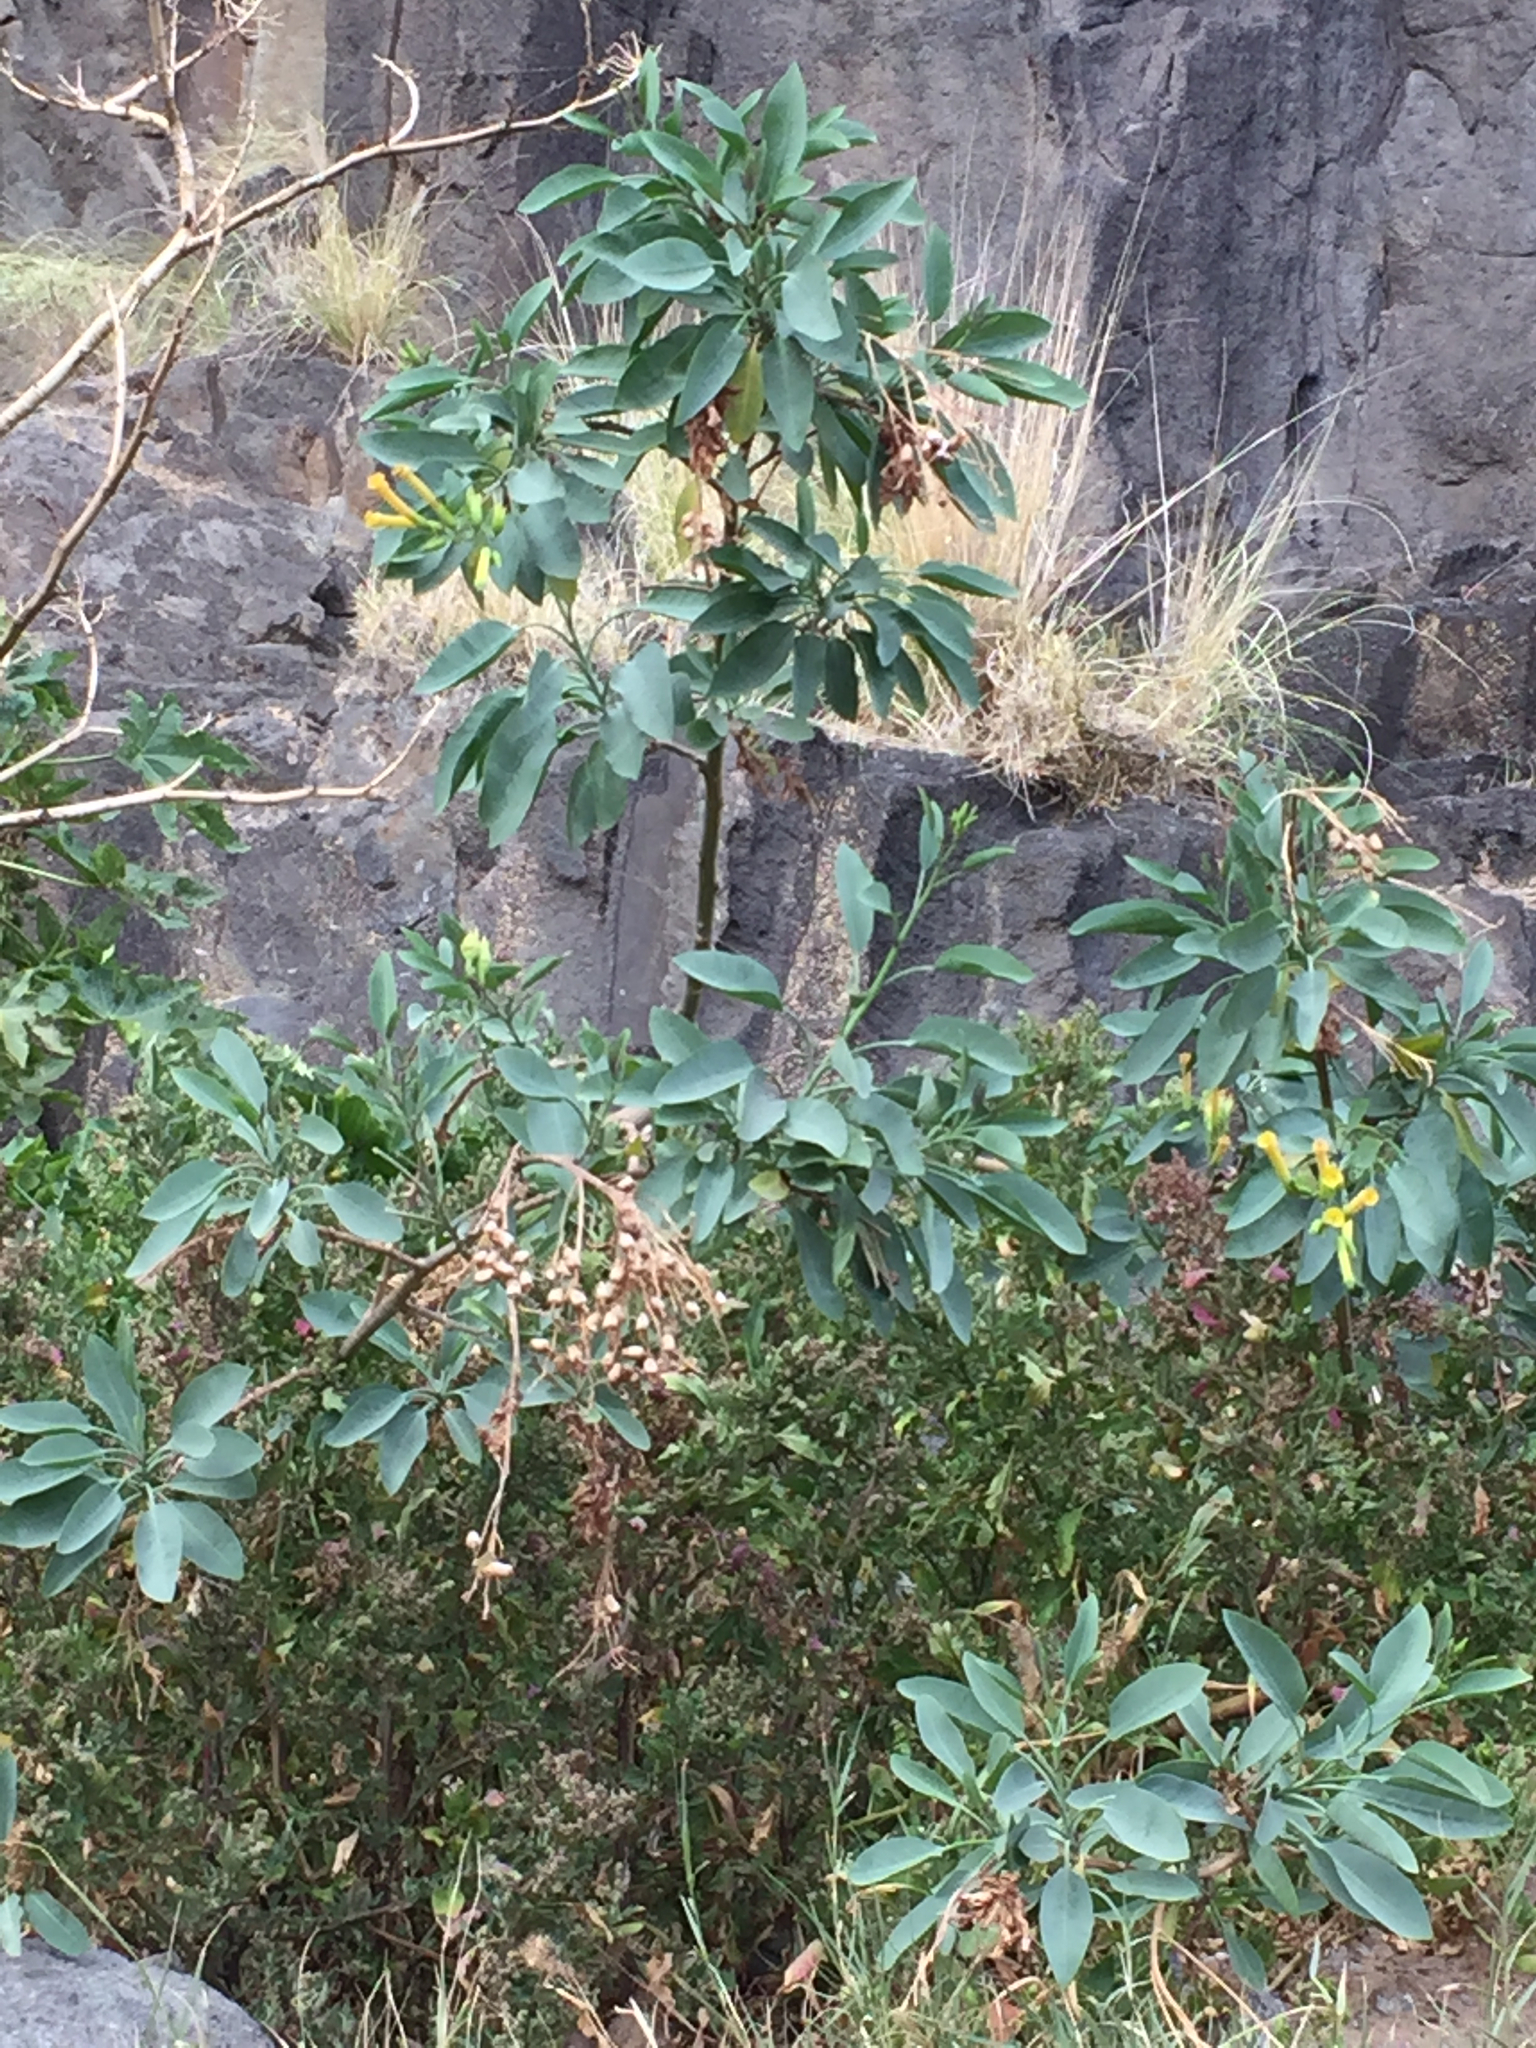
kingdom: Plantae
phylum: Tracheophyta
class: Magnoliopsida
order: Solanales
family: Solanaceae
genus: Nicotiana
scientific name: Nicotiana glauca
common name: Tree tobacco
